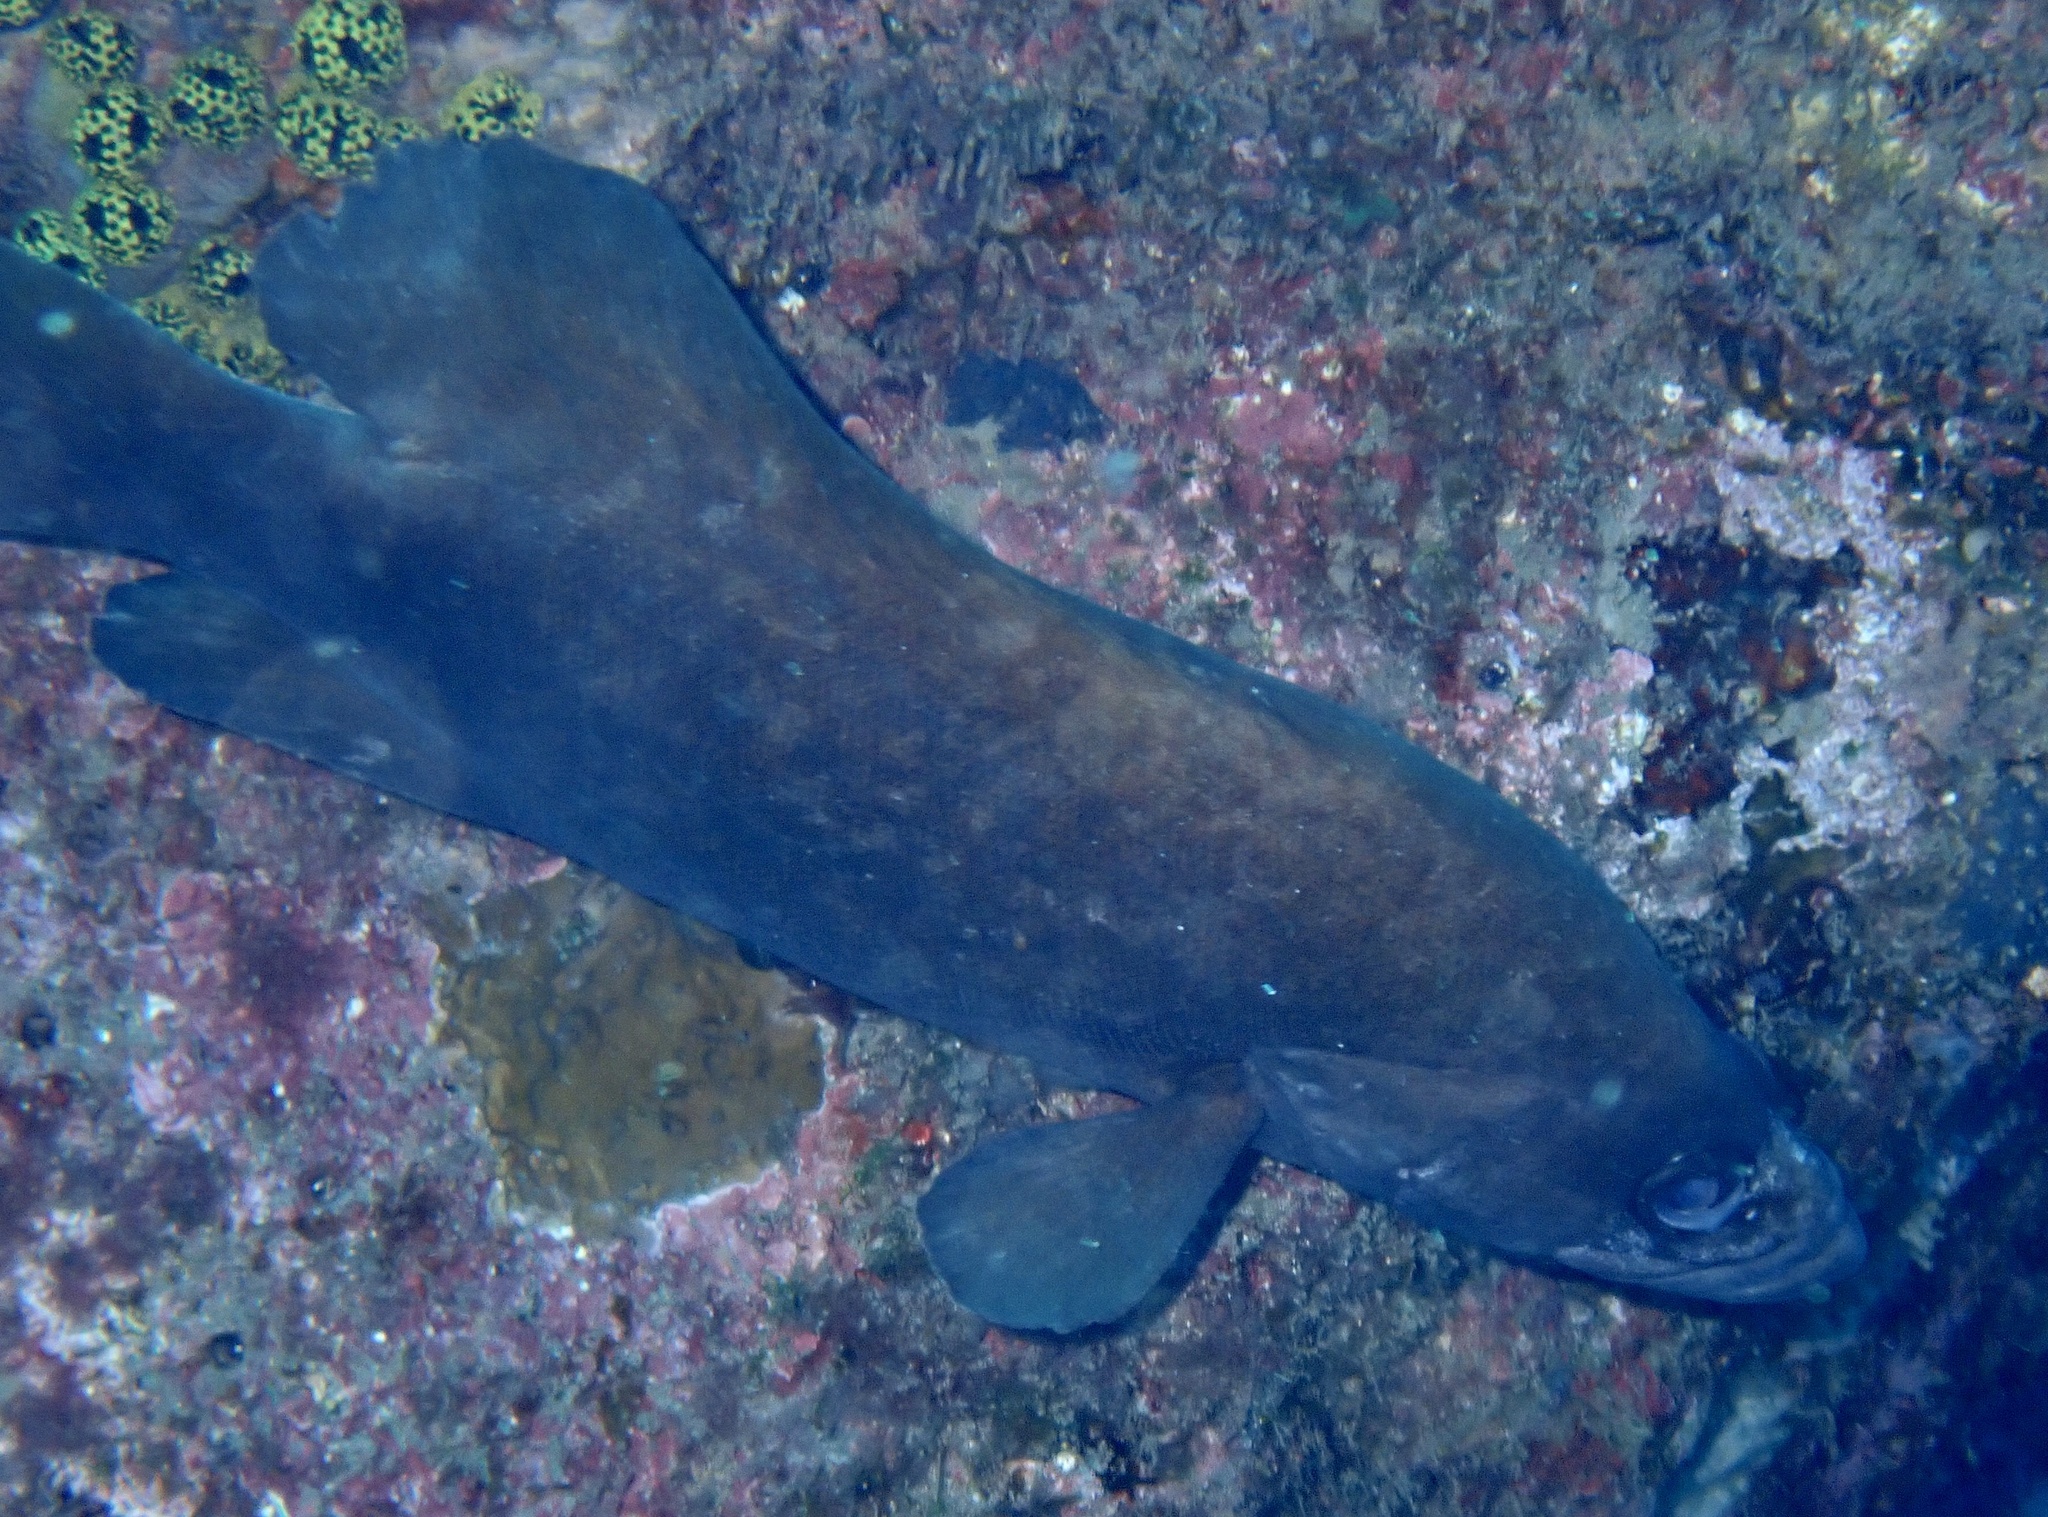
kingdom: Animalia
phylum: Chordata
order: Perciformes
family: Serranidae
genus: Rypticus
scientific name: Rypticus saponaceus
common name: Soapfish
